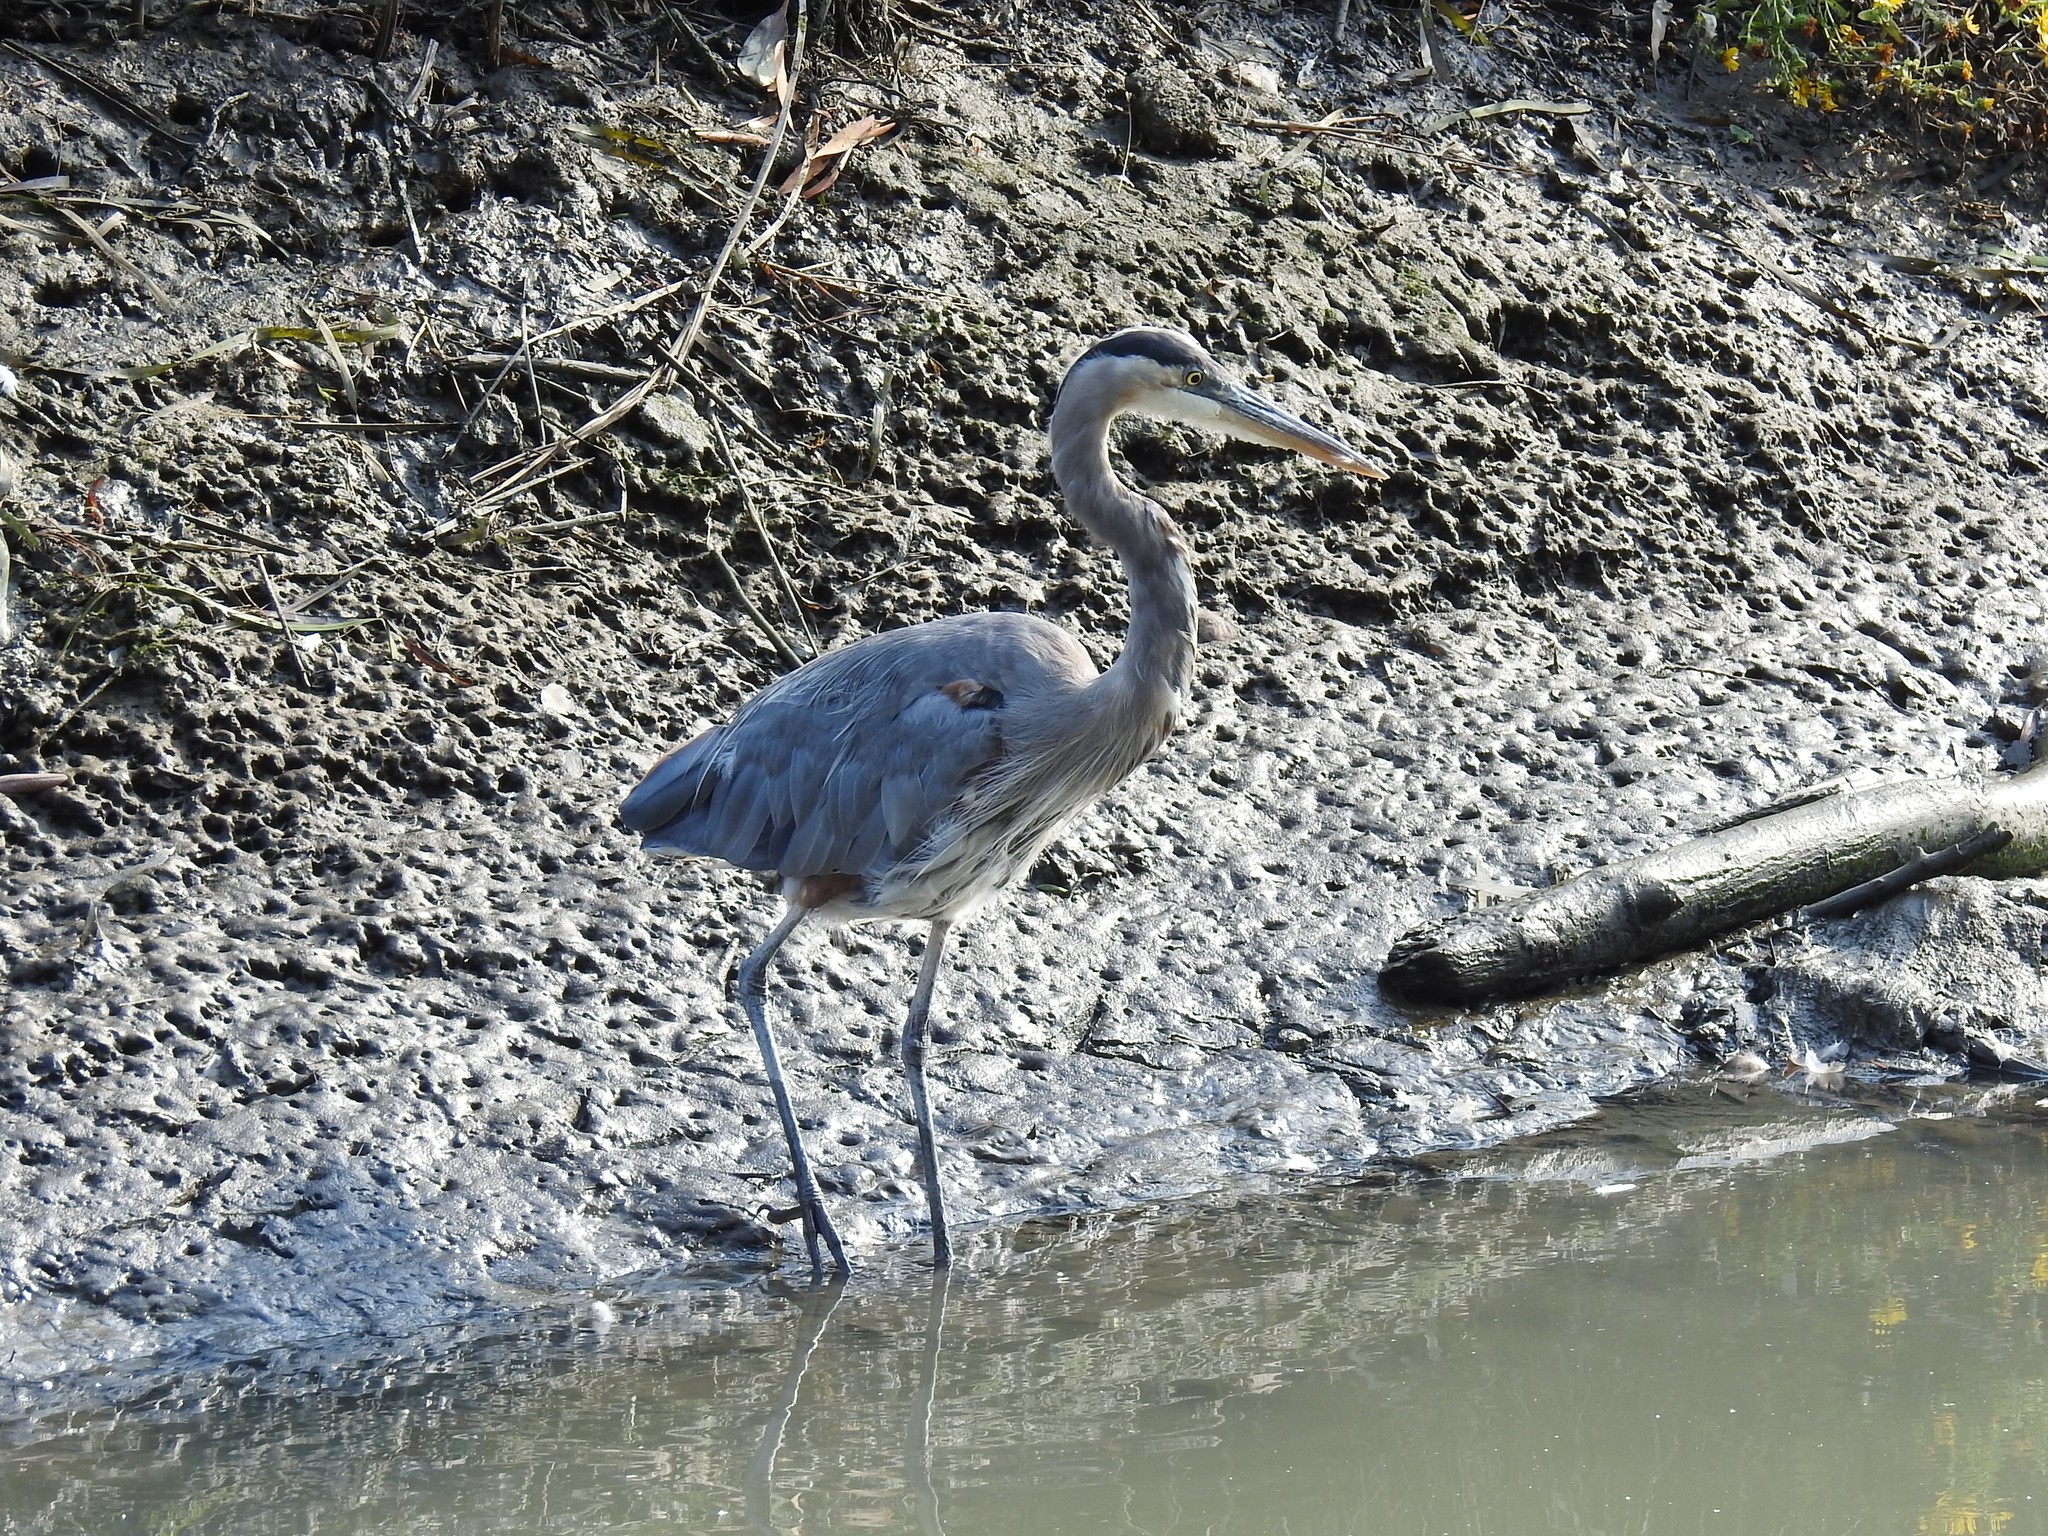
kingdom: Animalia
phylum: Chordata
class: Aves
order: Pelecaniformes
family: Ardeidae
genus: Ardea
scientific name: Ardea herodias
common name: Great blue heron
